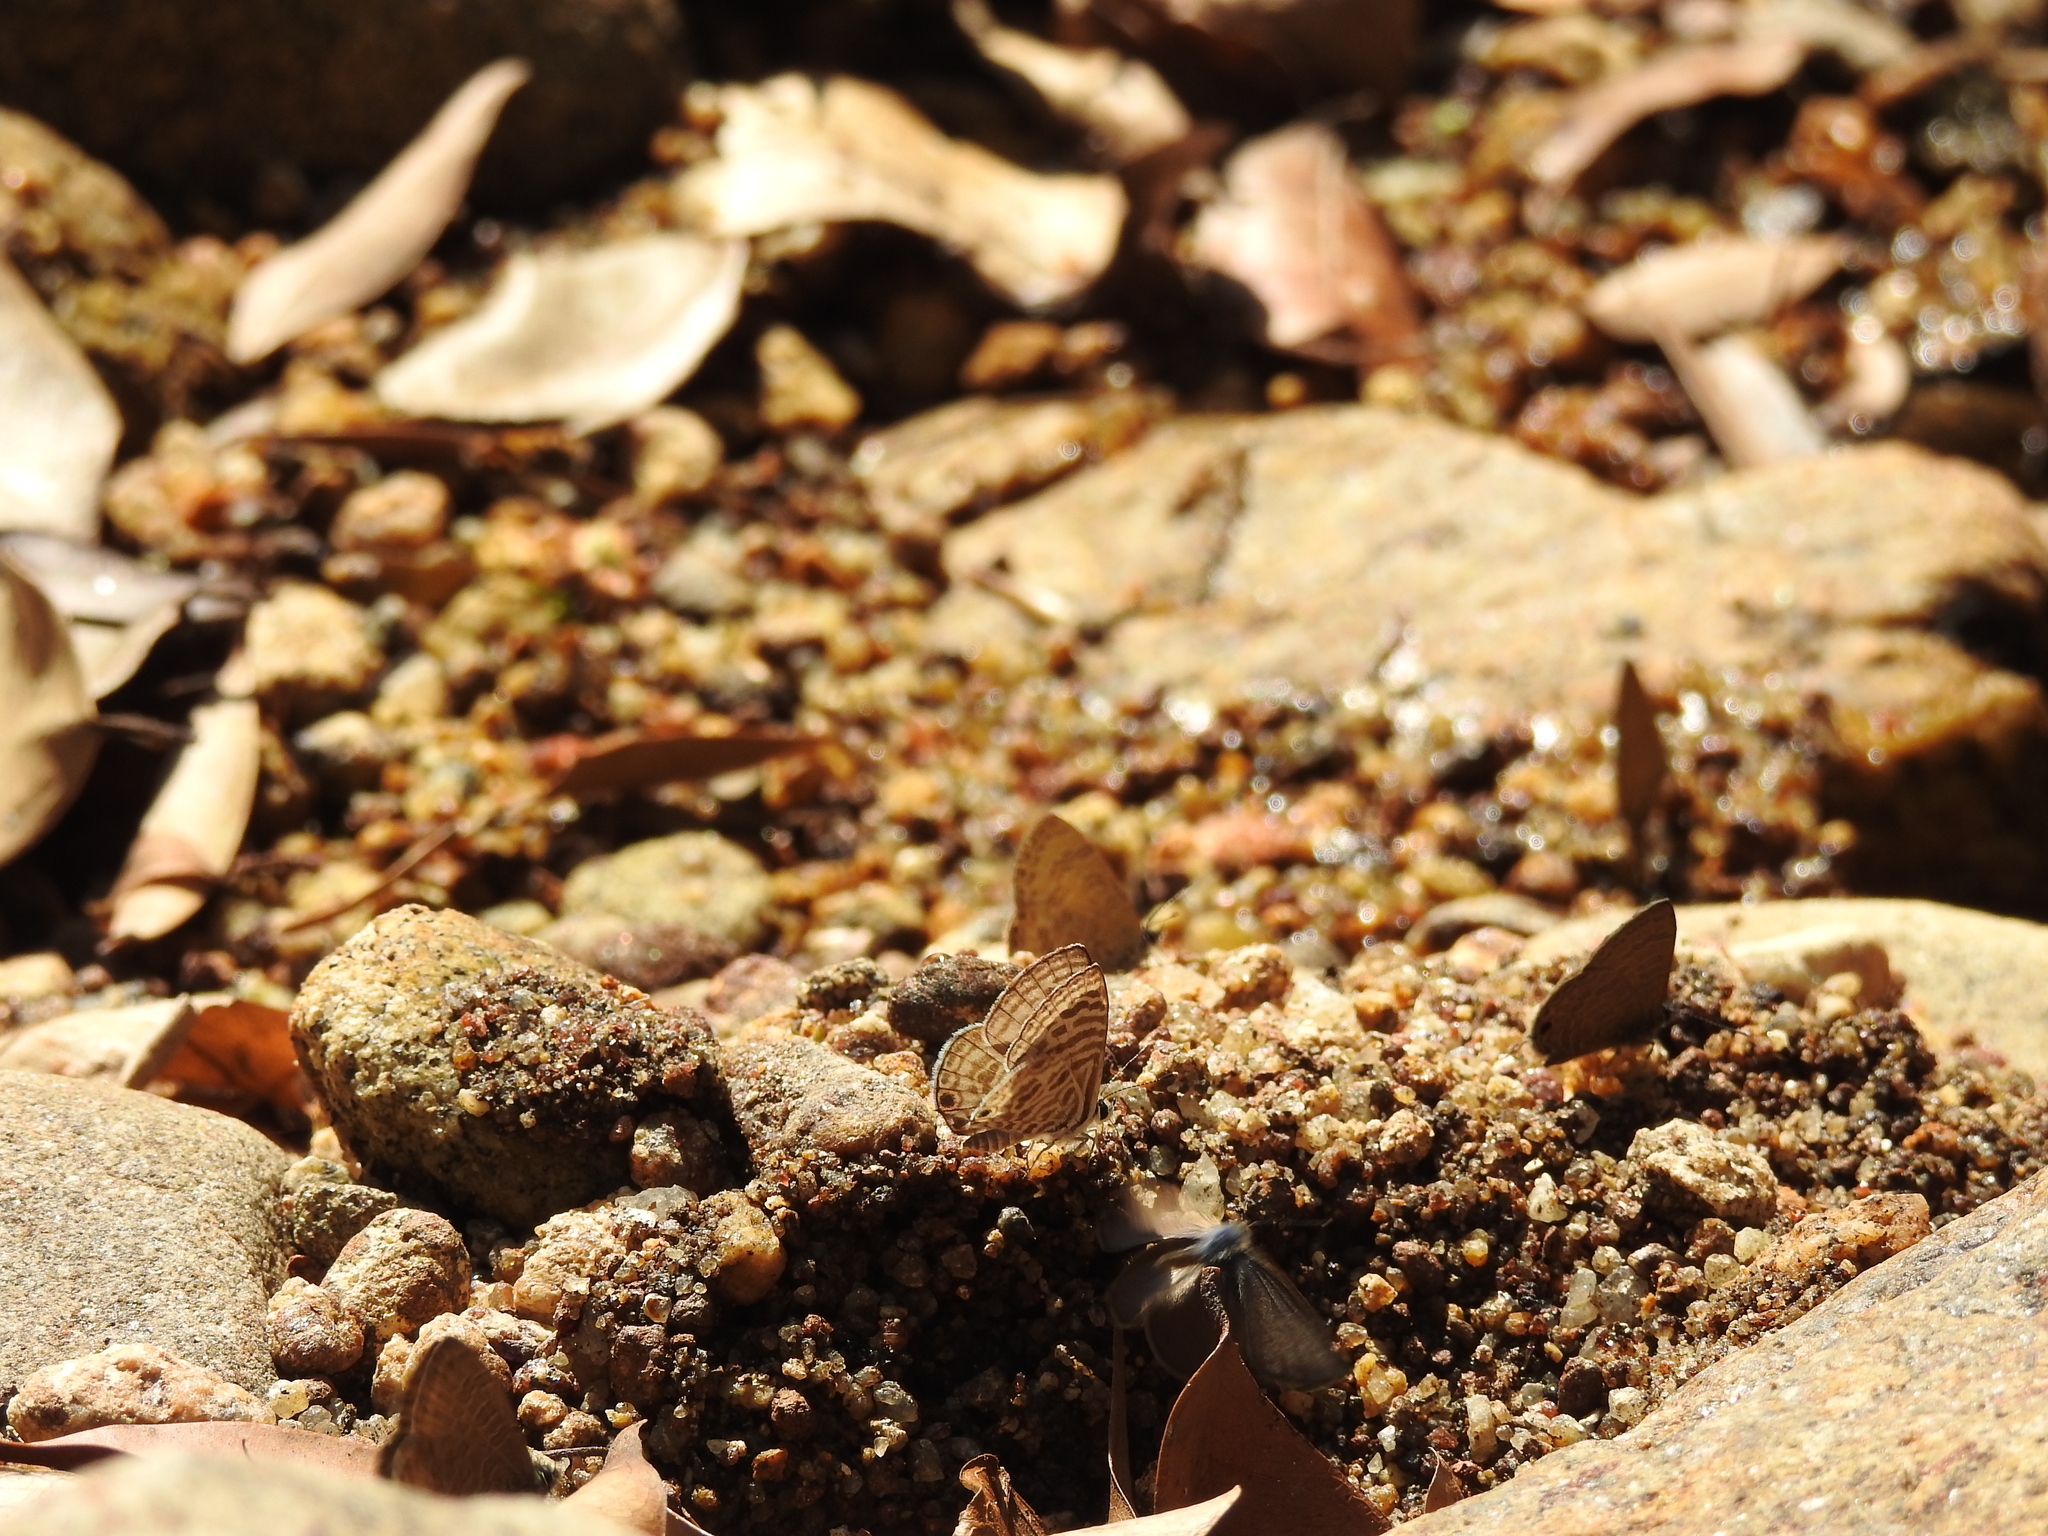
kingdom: Animalia
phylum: Arthropoda
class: Insecta
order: Lepidoptera
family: Lycaenidae
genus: Leptotes
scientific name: Leptotes plinius
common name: Zebra blue
